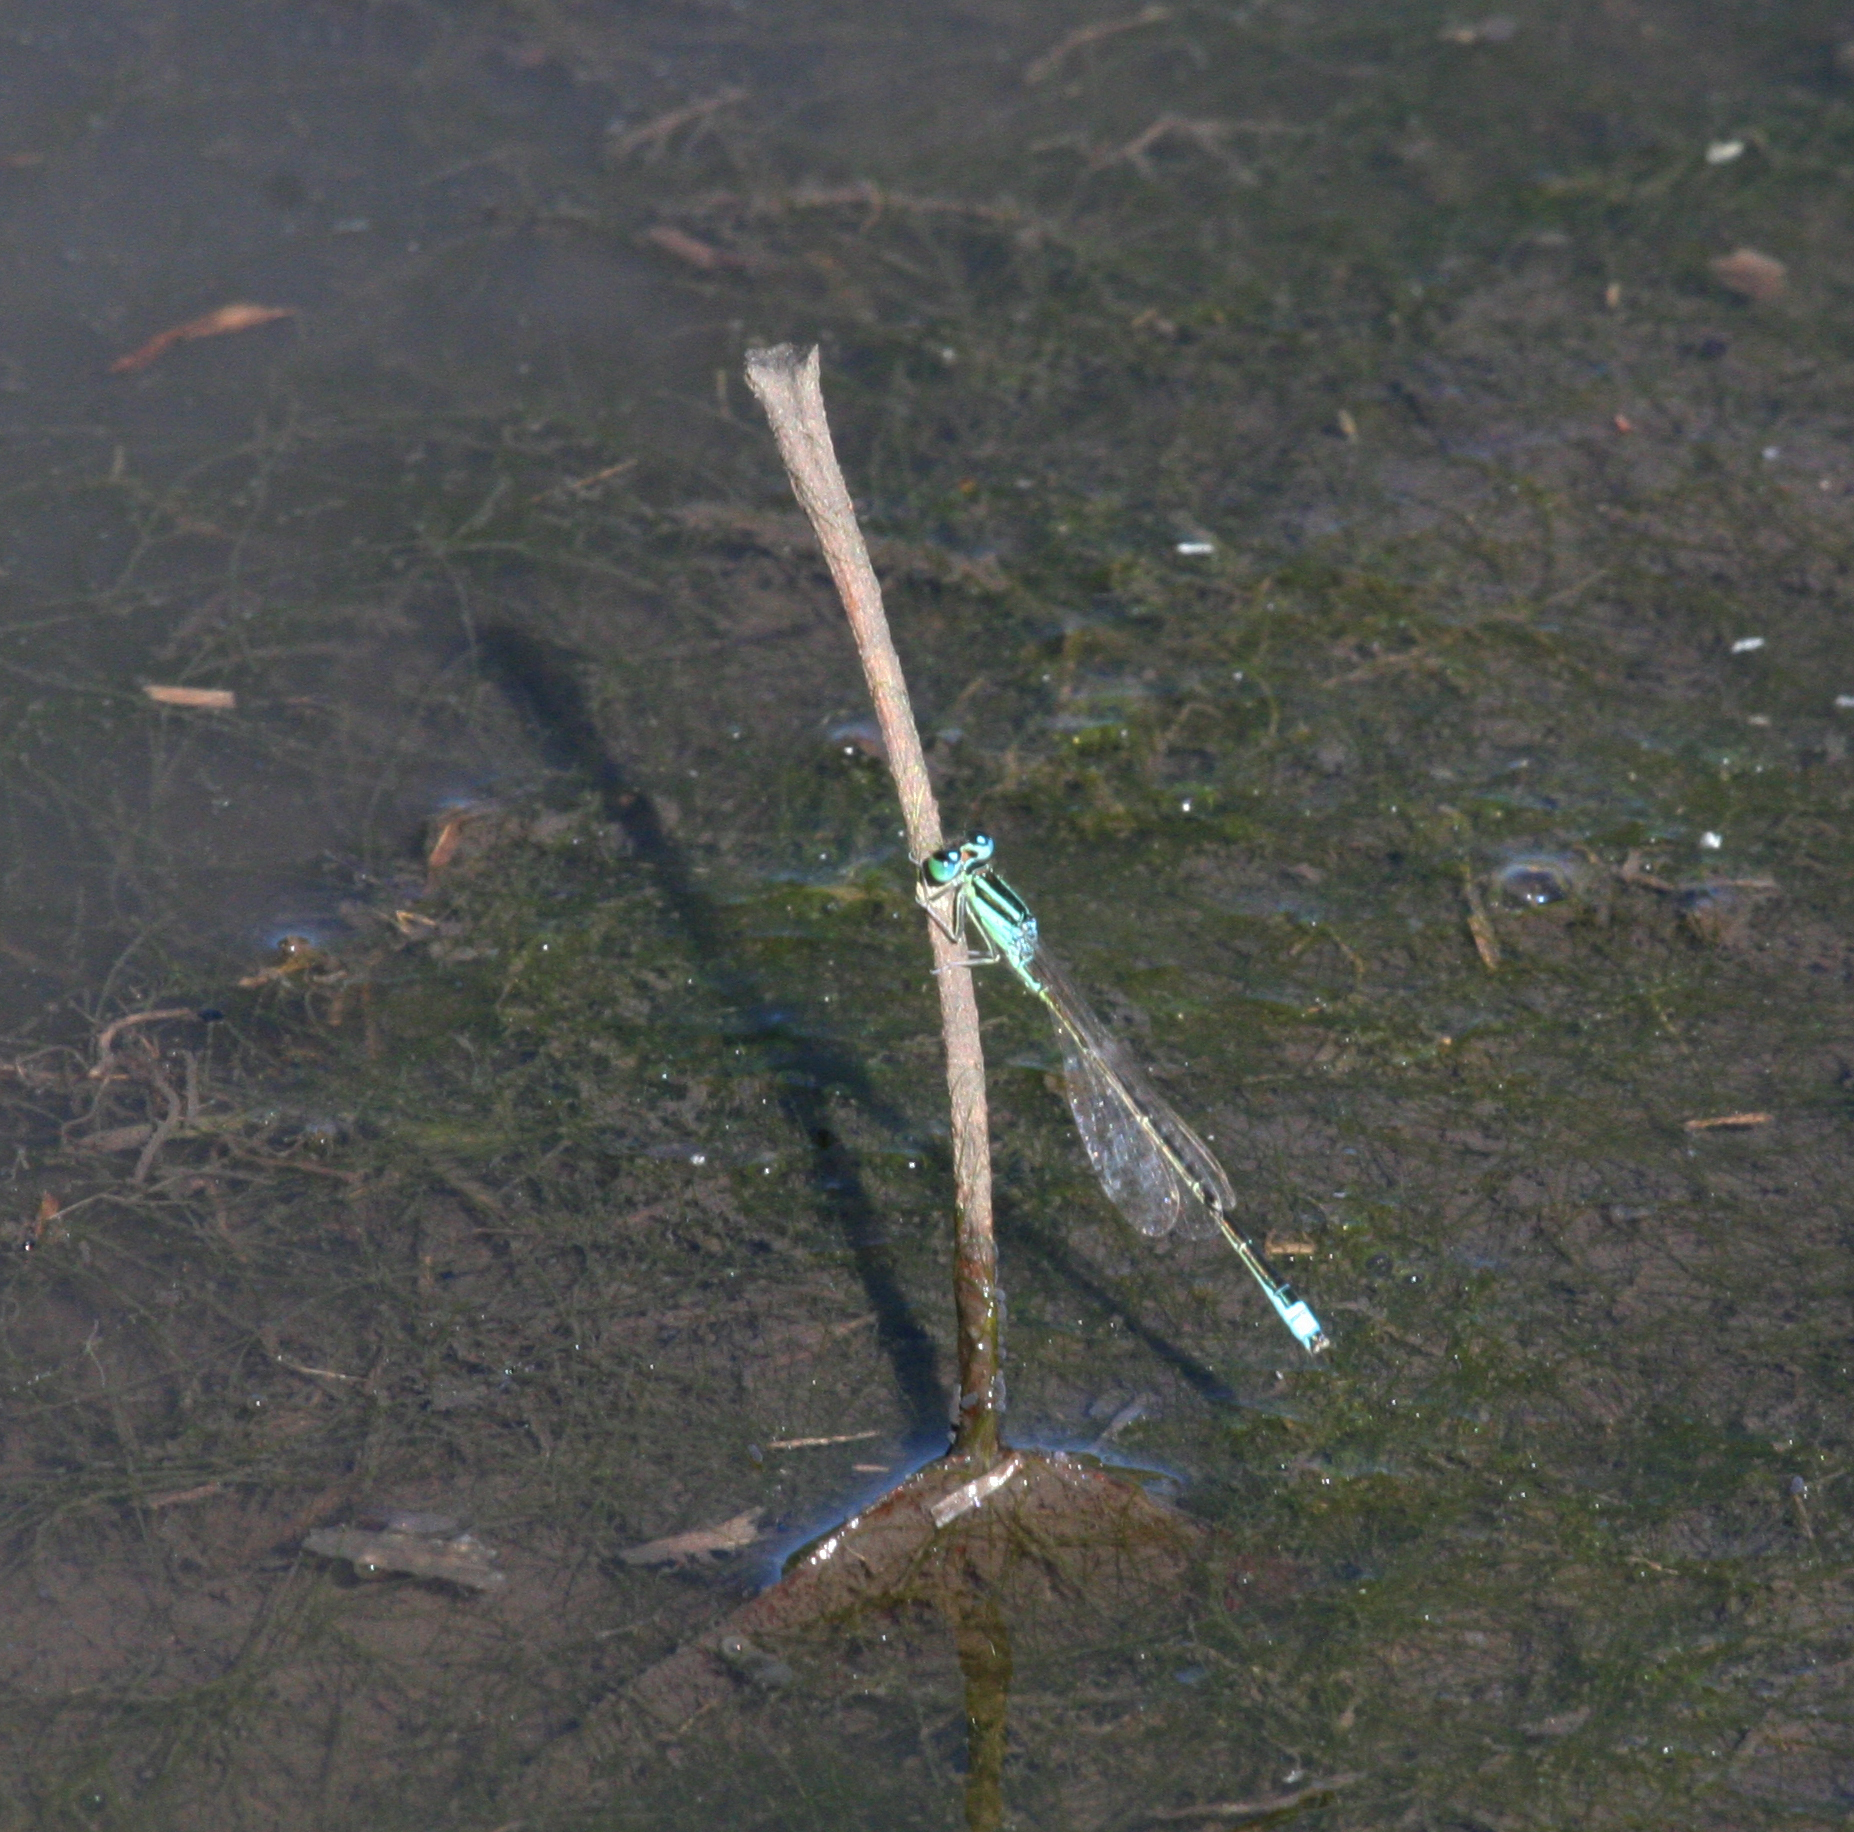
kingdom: Animalia
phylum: Arthropoda
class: Insecta
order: Odonata
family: Coenagrionidae
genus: Ischnura
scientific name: Ischnura pumilio
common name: Scarce blue-tailed damselfly
